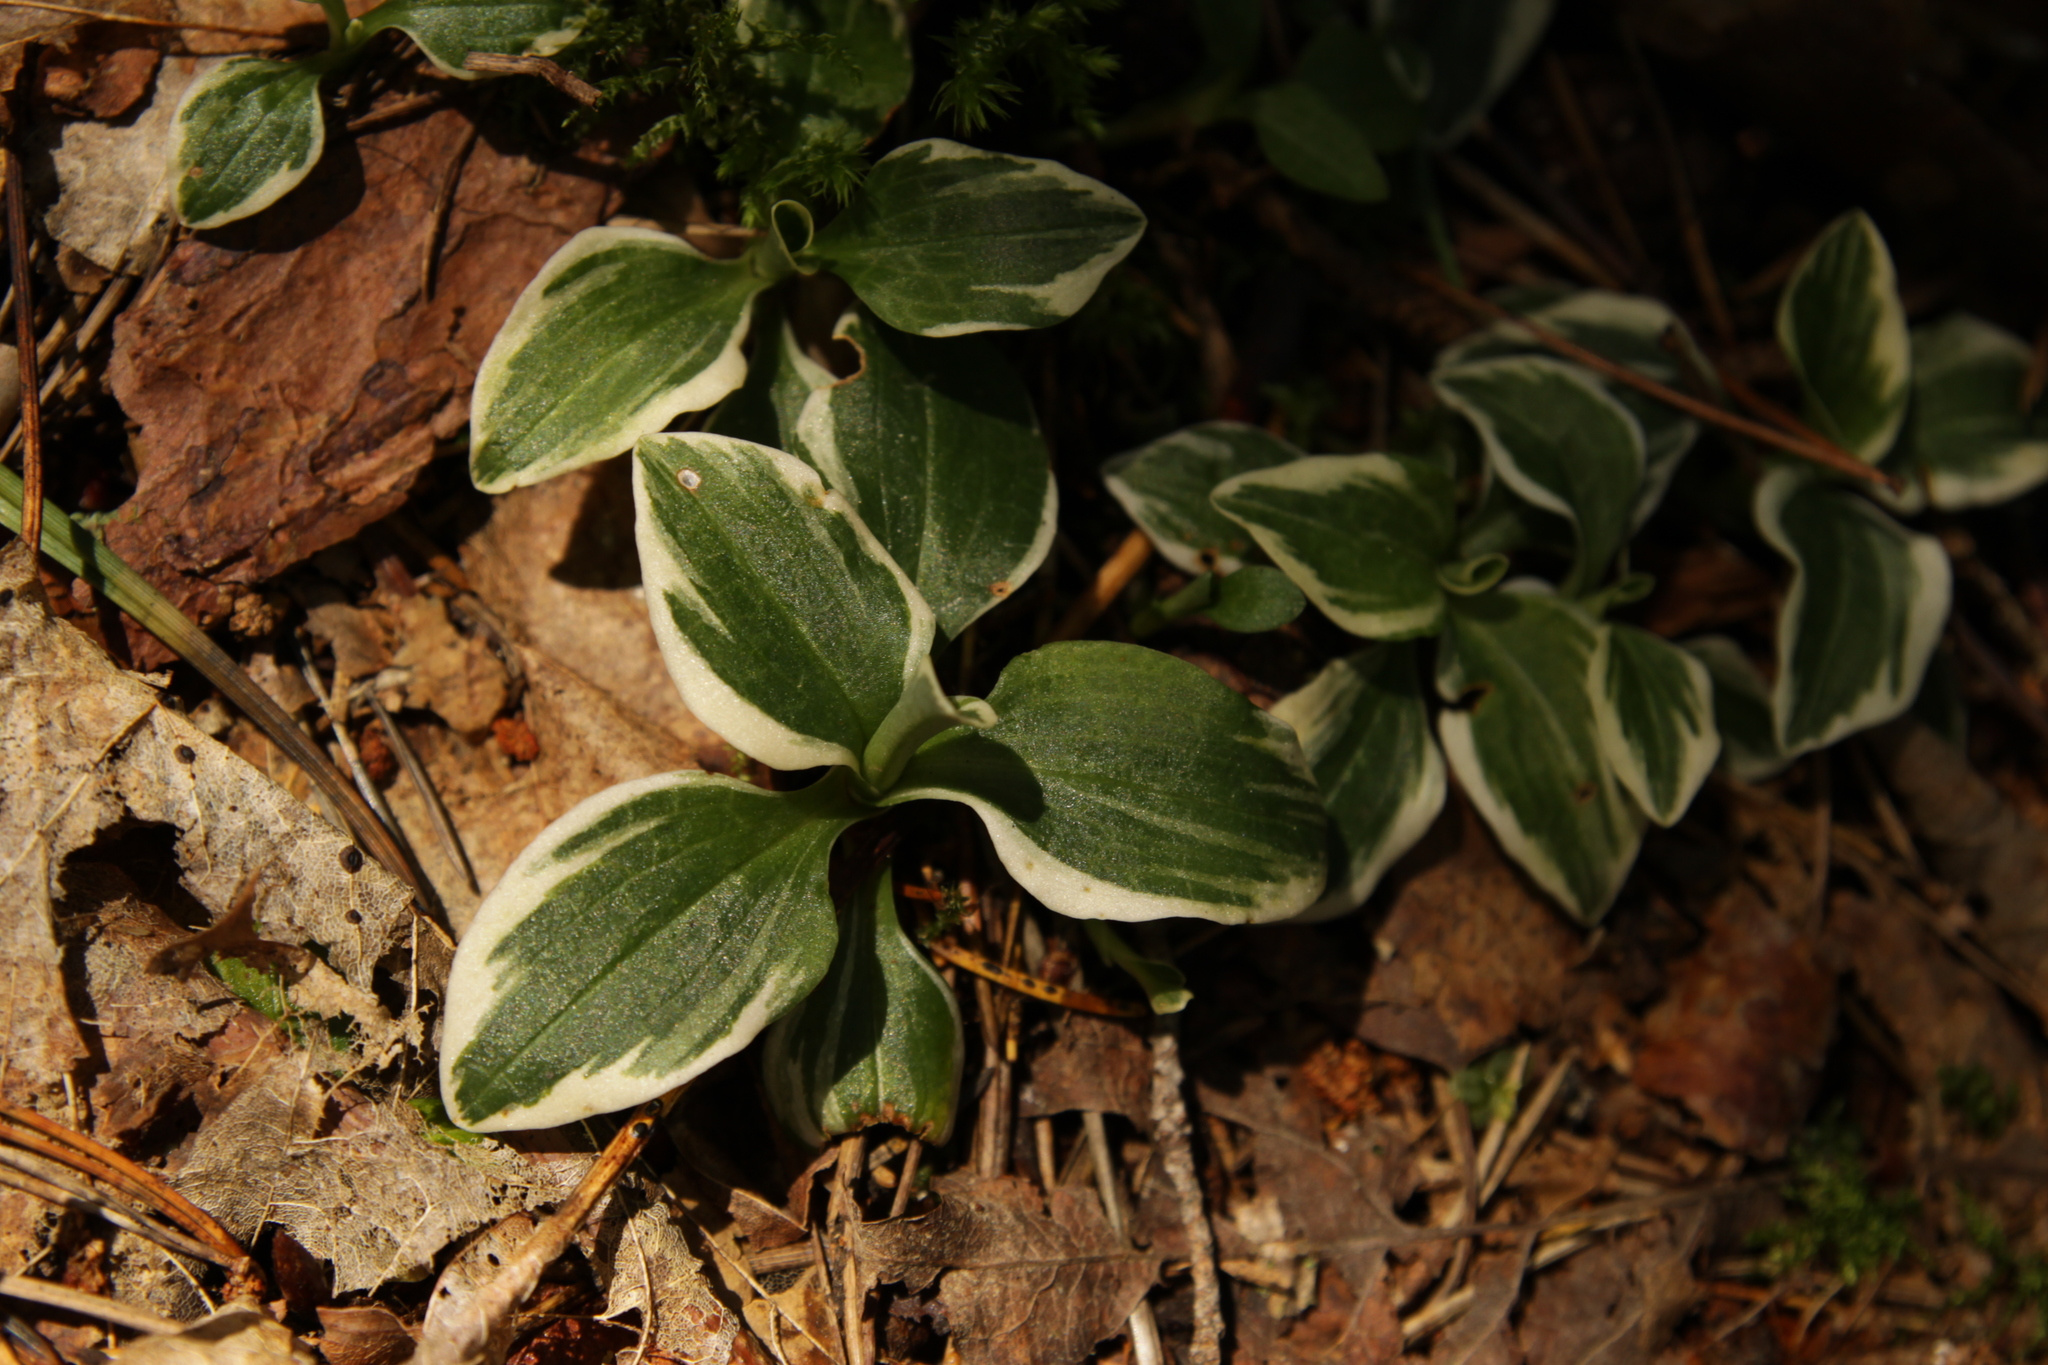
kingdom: Plantae
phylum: Tracheophyta
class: Liliopsida
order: Asparagales
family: Orchidaceae
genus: Goodyera
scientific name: Goodyera repens
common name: Creeping lady's-tresses
